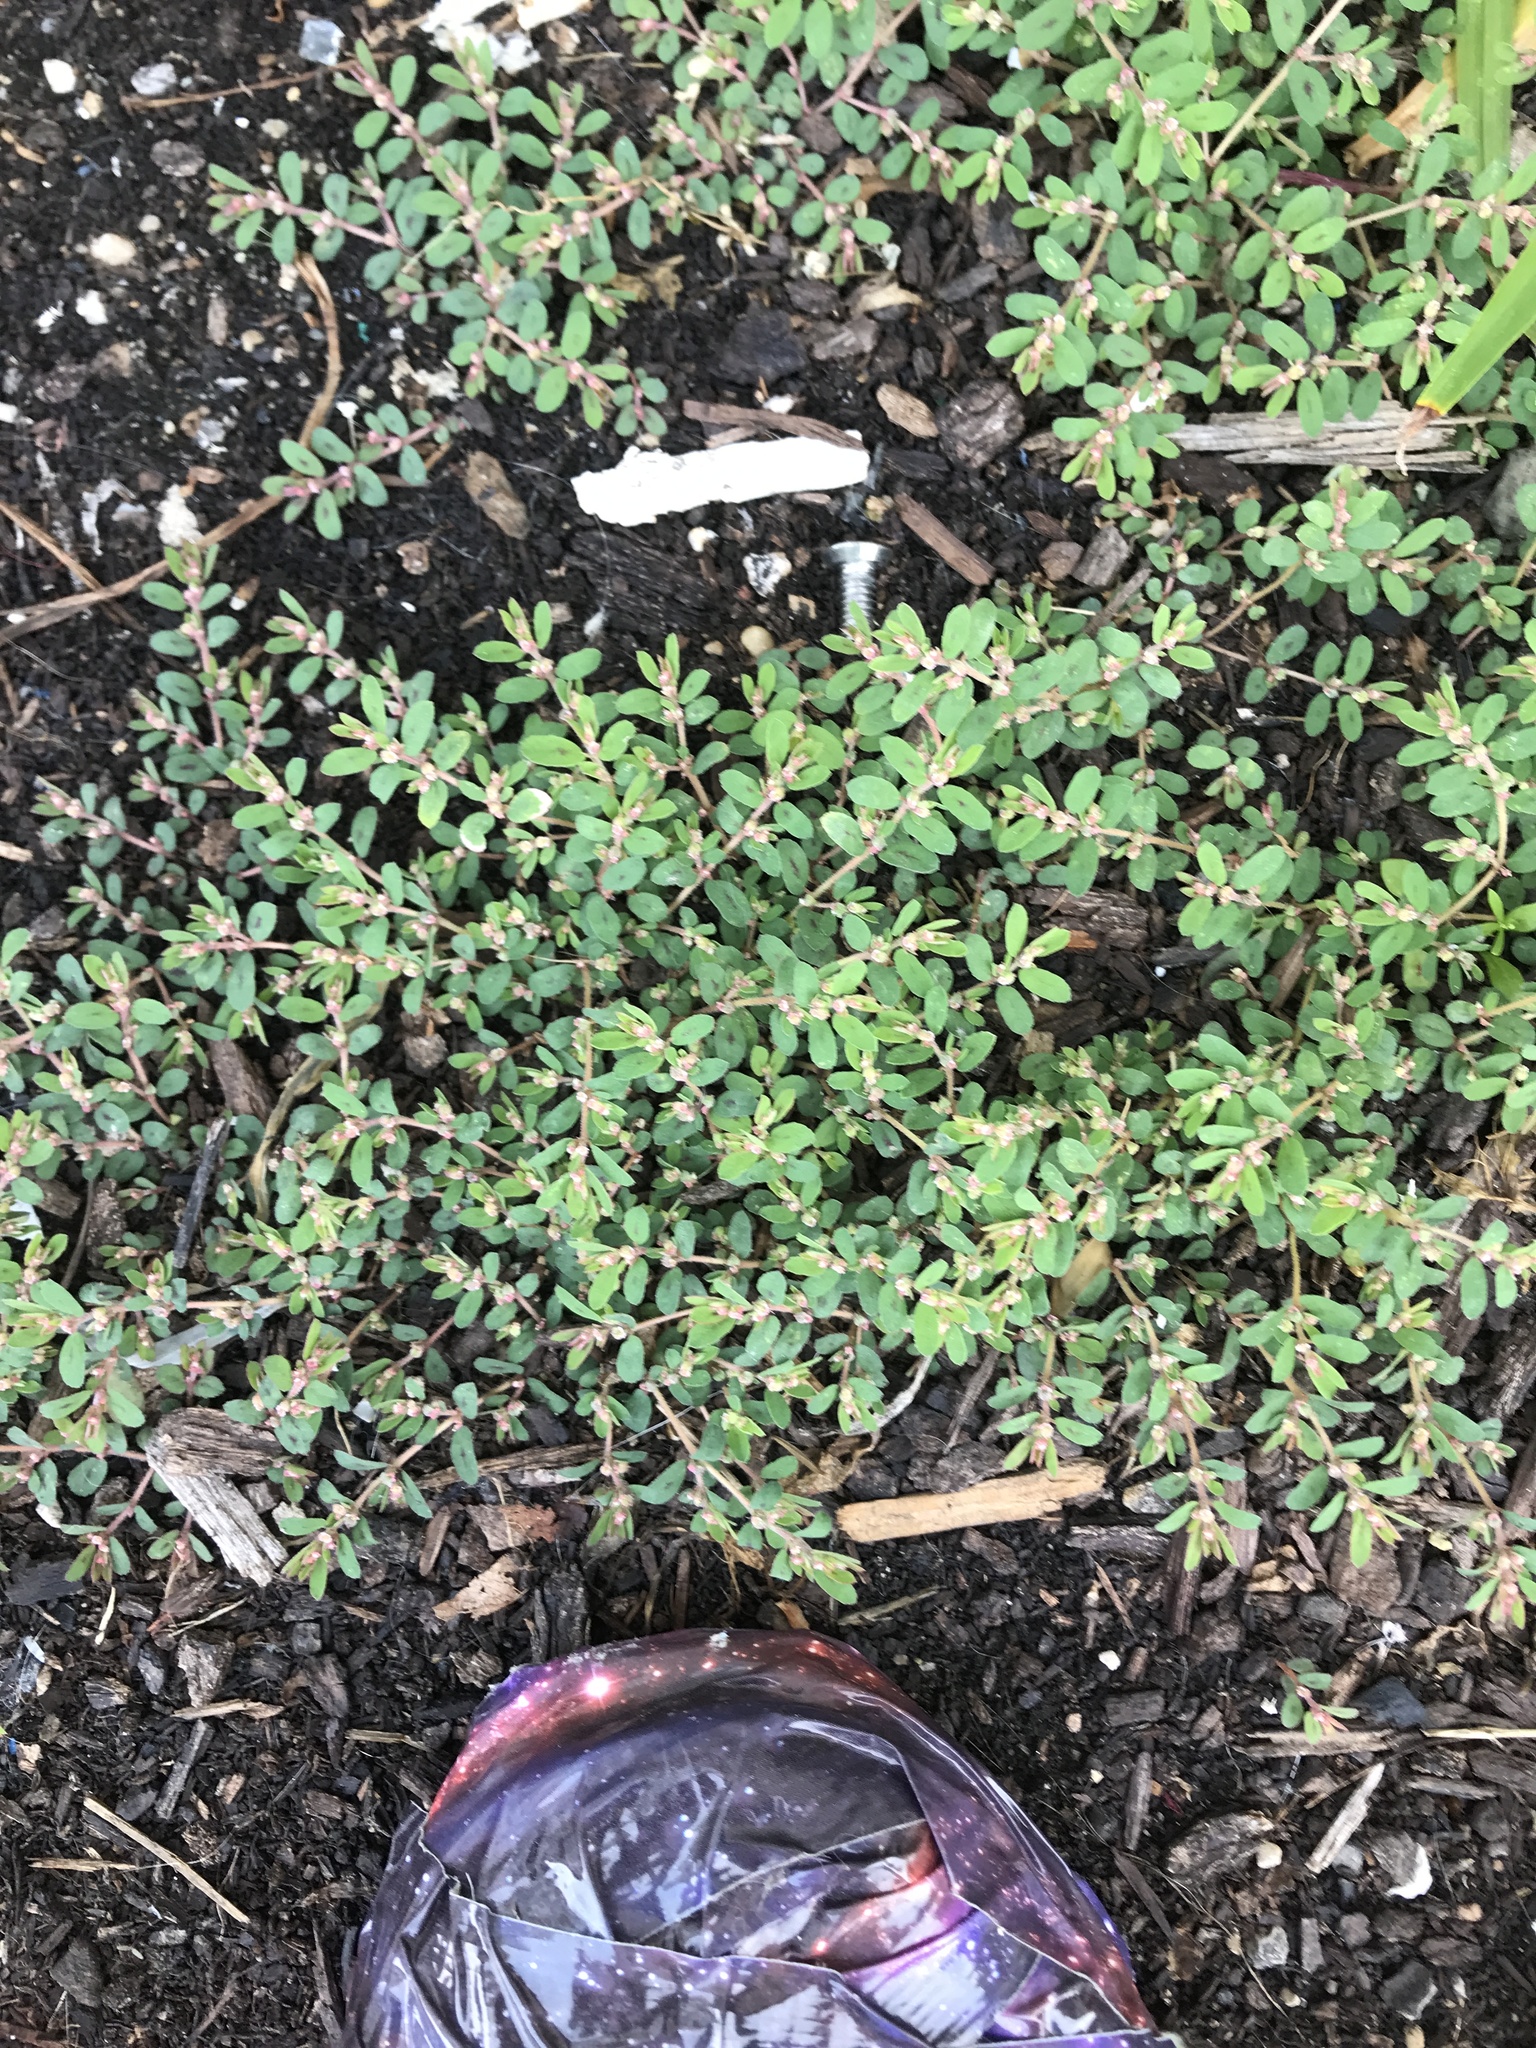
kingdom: Plantae
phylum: Tracheophyta
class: Magnoliopsida
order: Malpighiales
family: Euphorbiaceae
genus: Euphorbia
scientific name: Euphorbia maculata
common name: Spotted spurge
